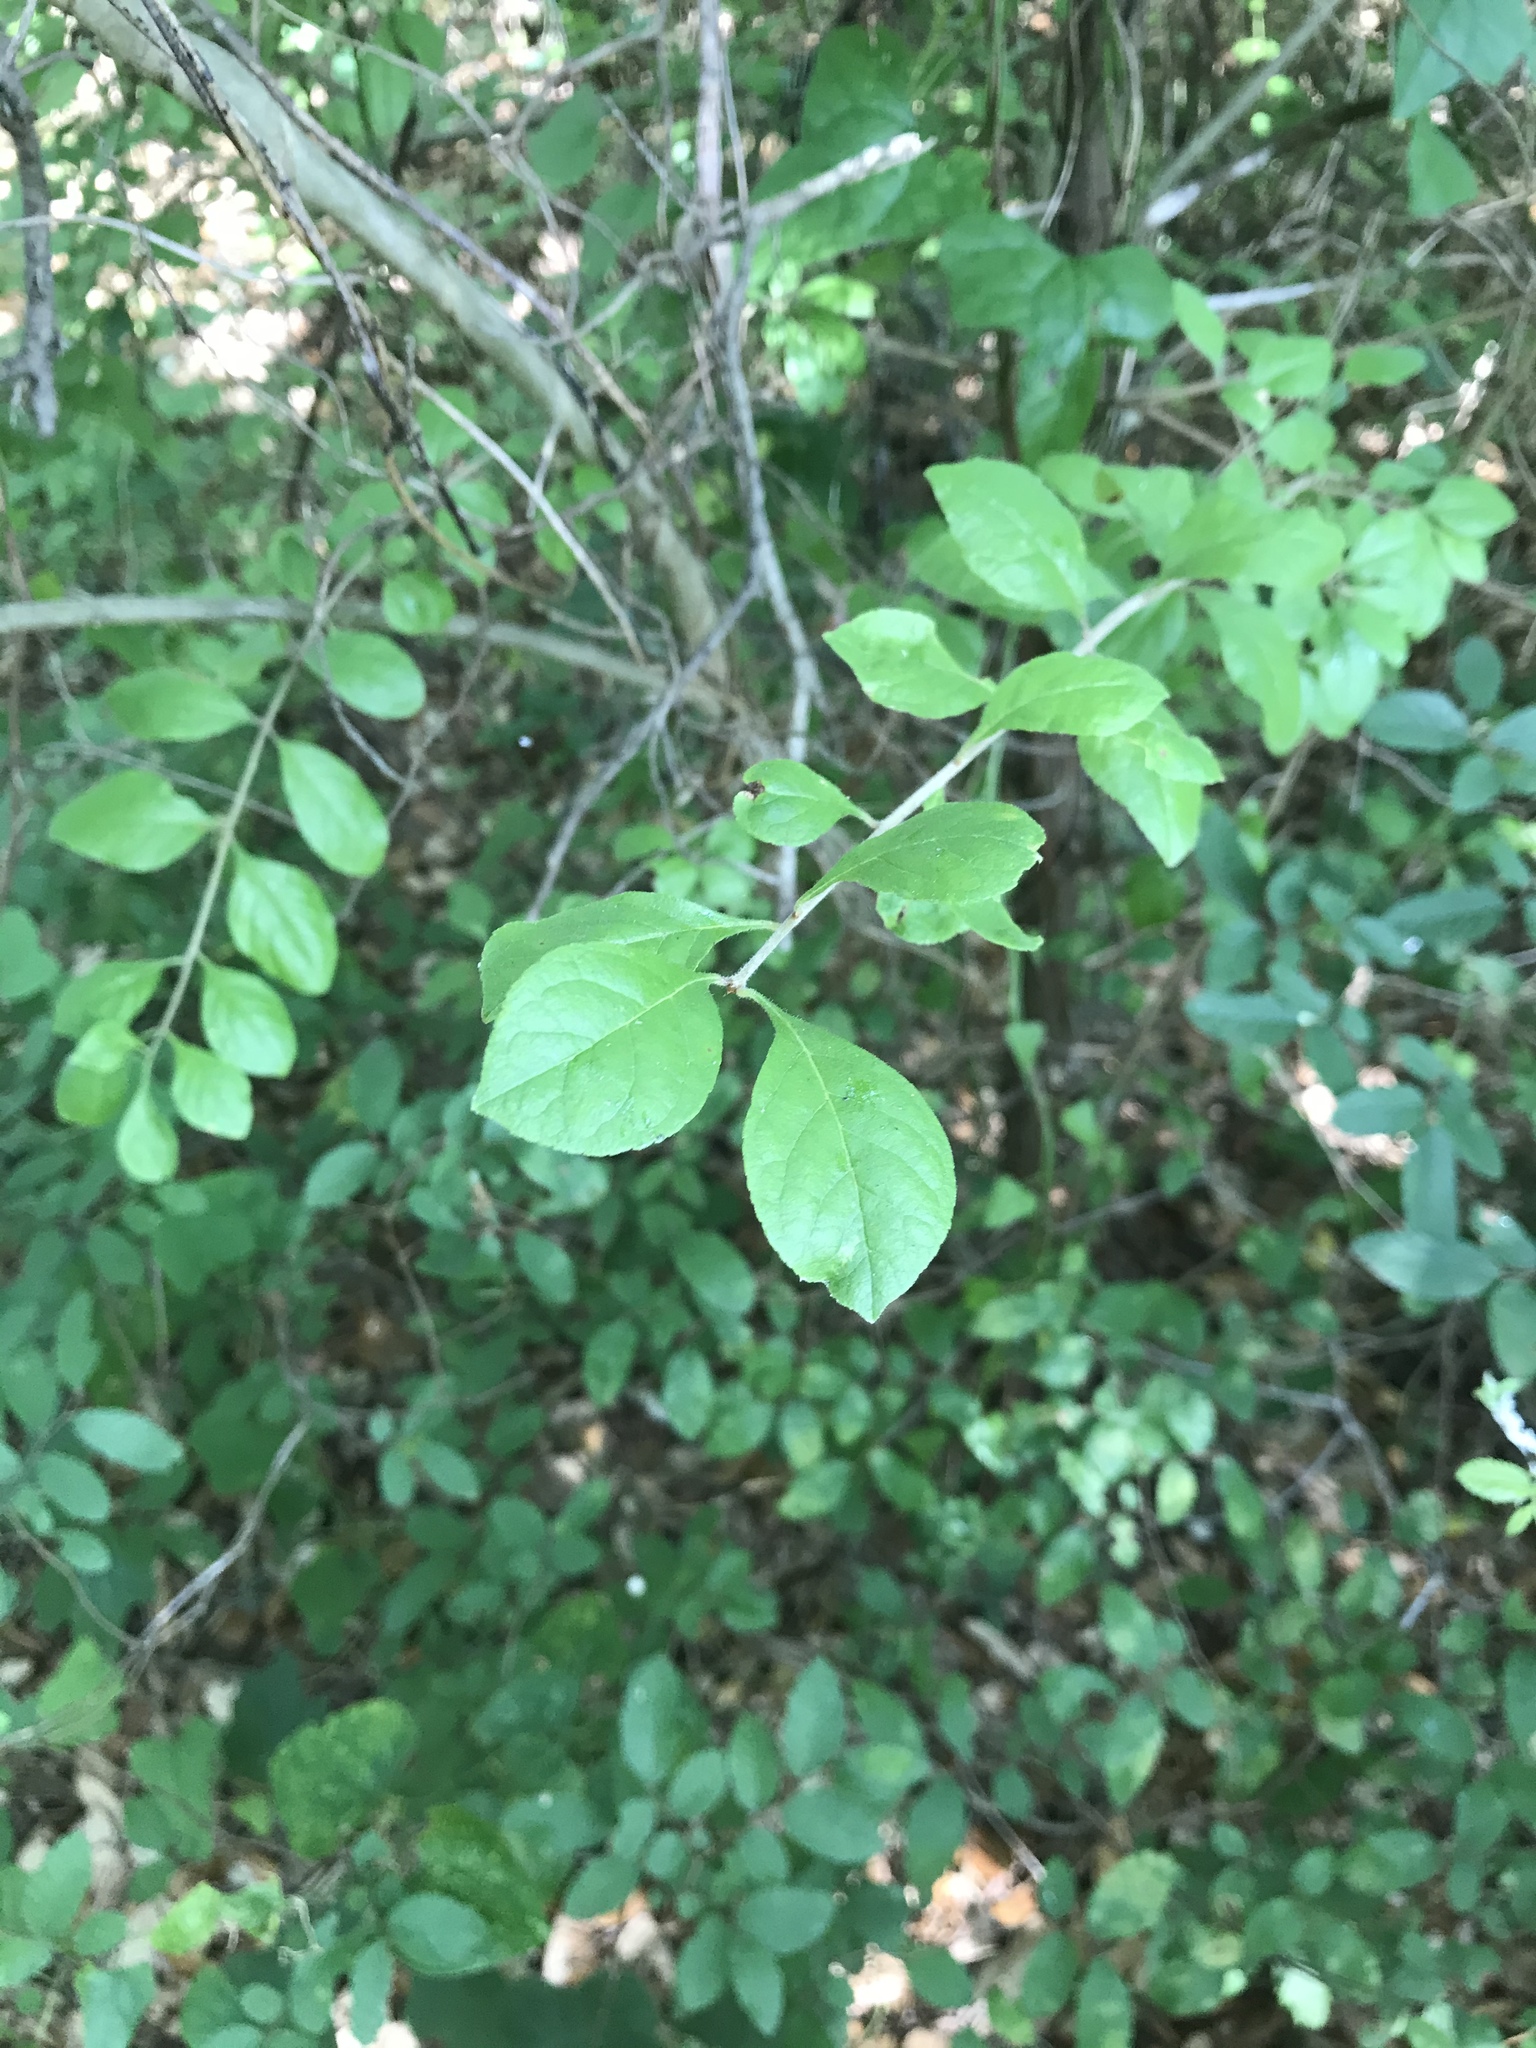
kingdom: Plantae
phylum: Tracheophyta
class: Magnoliopsida
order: Lamiales
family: Oleaceae
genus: Forestiera
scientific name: Forestiera pubescens
